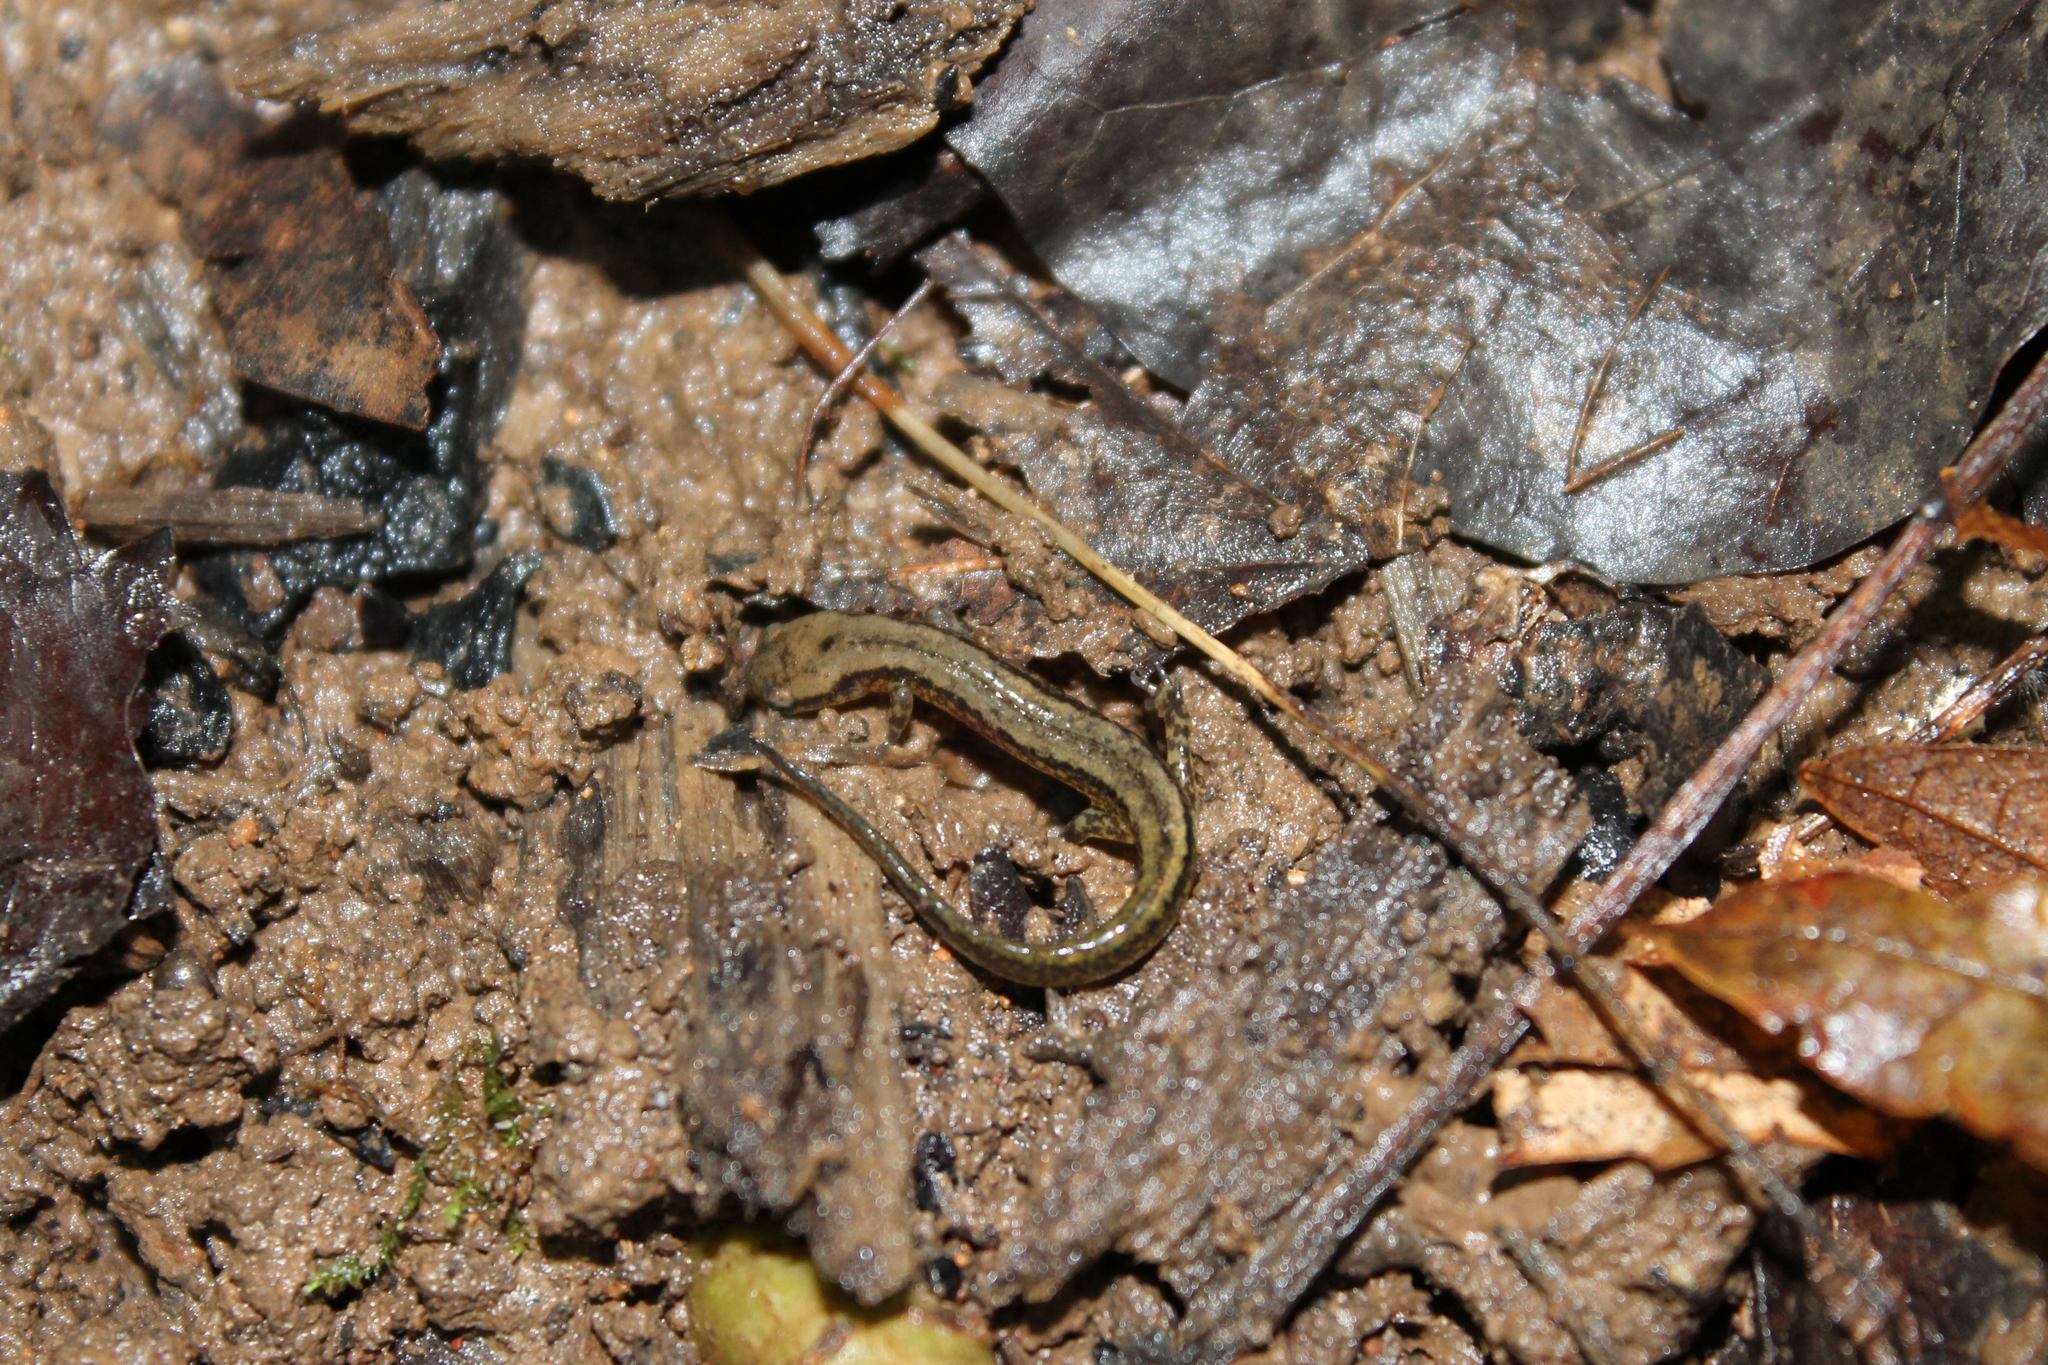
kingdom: Animalia
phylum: Chordata
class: Amphibia
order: Caudata
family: Plethodontidae
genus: Eurycea
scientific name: Eurycea cirrigera
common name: Southern two-lined salamander
